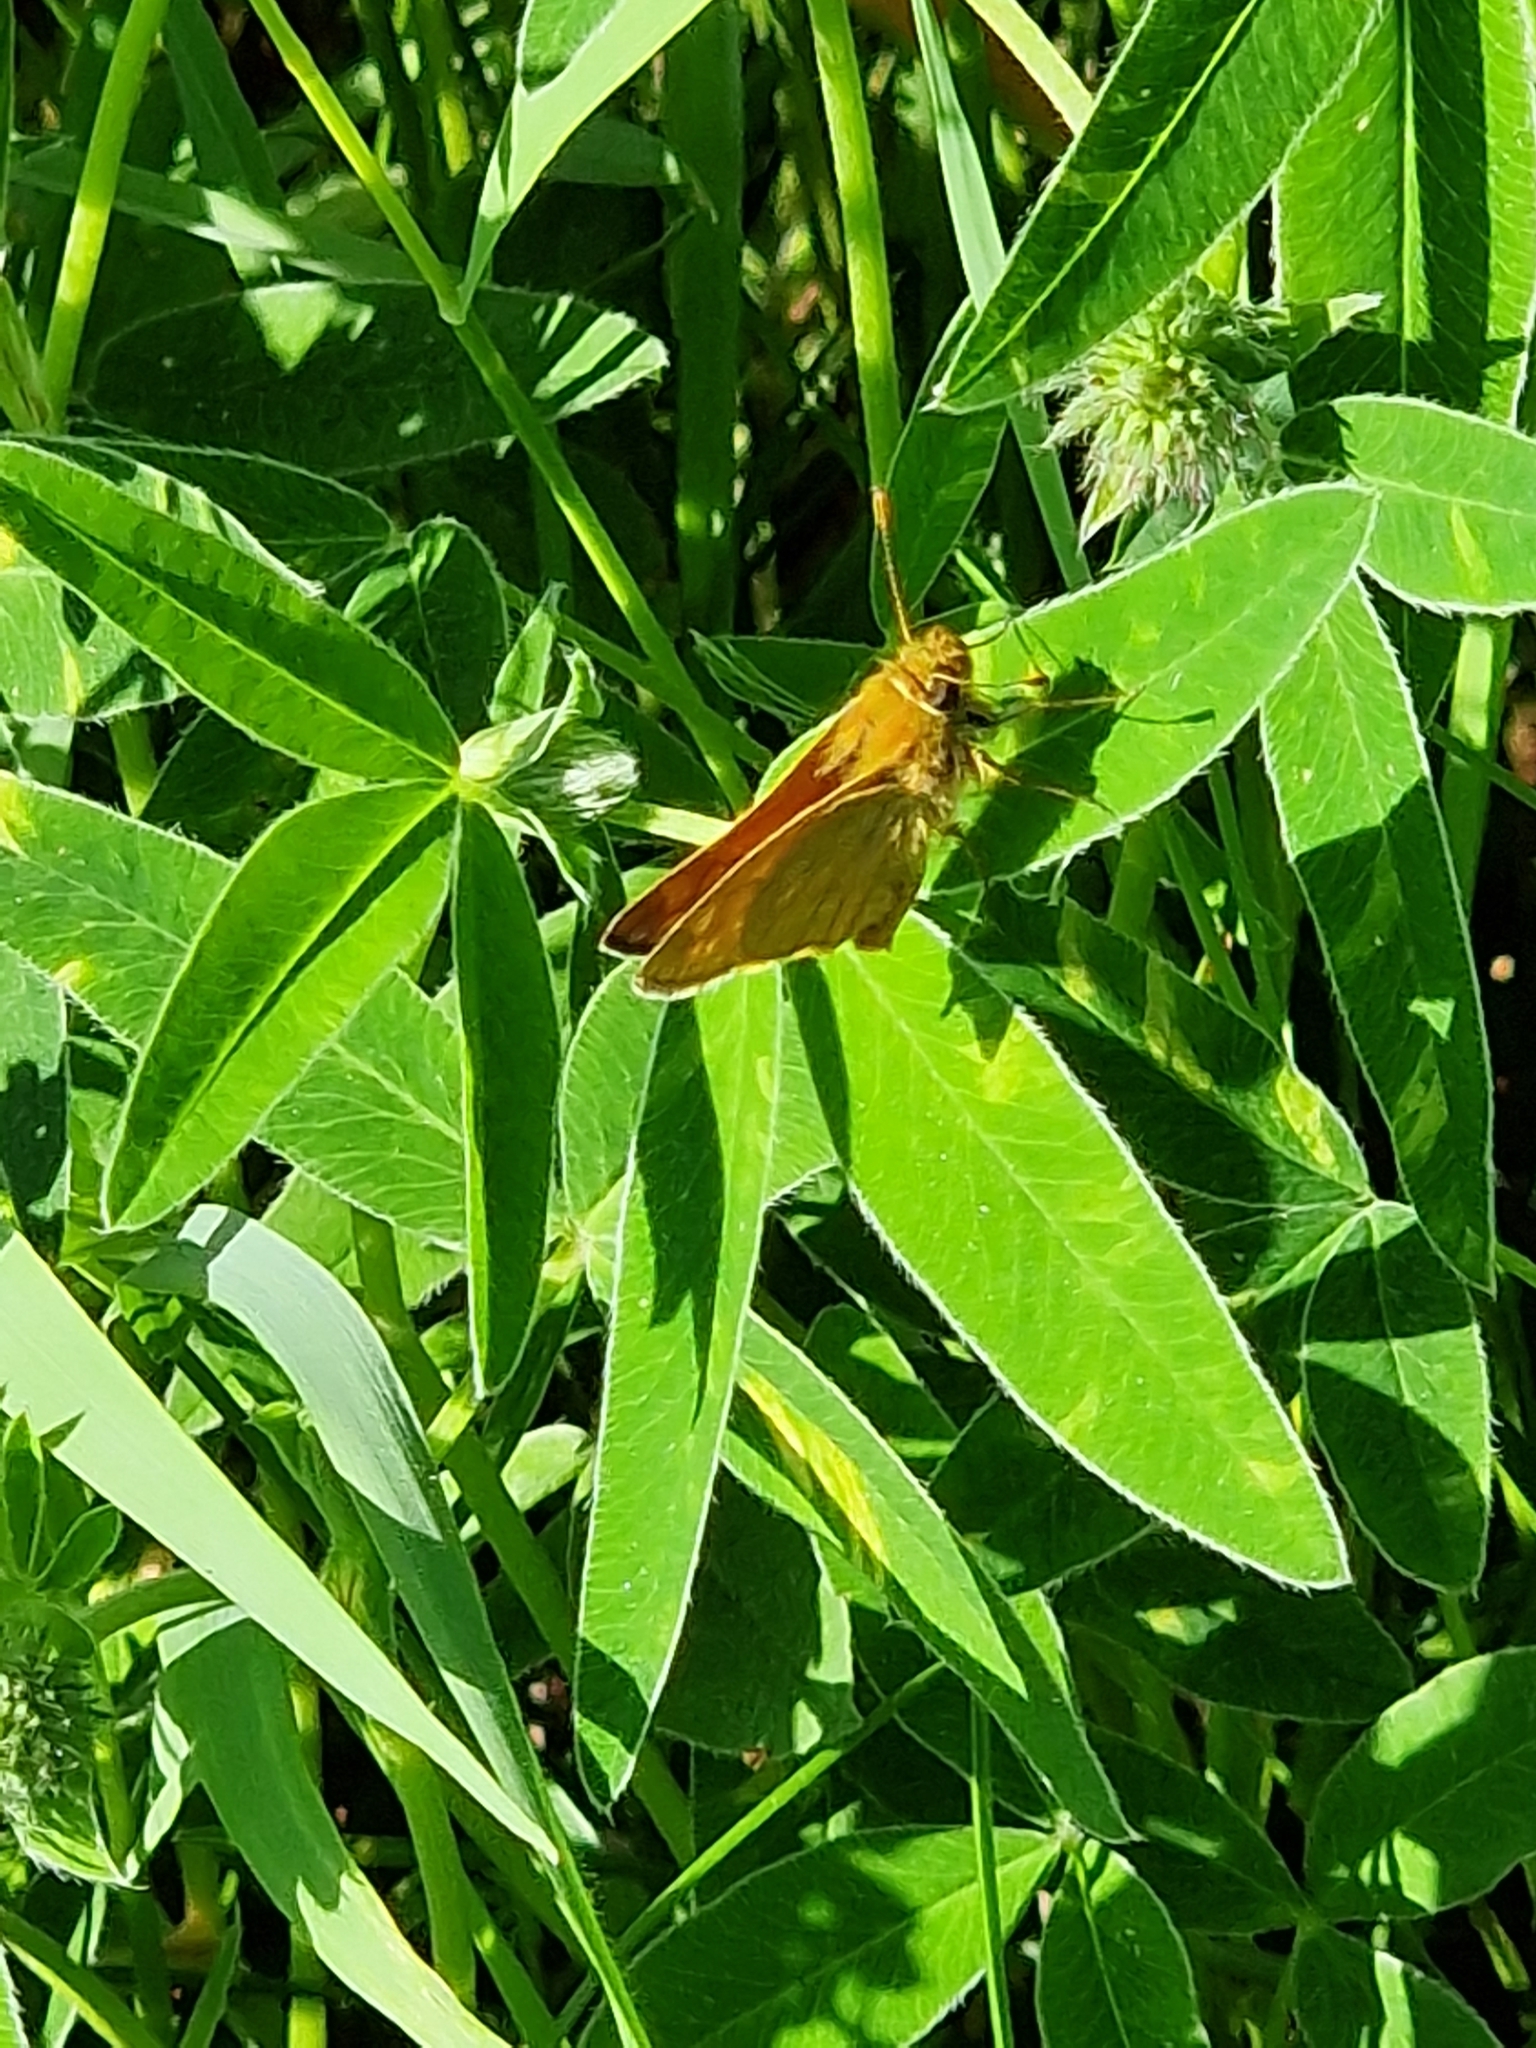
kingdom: Animalia
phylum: Arthropoda
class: Insecta
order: Lepidoptera
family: Hesperiidae
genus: Ochlodes
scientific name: Ochlodes venata
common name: Large skipper
